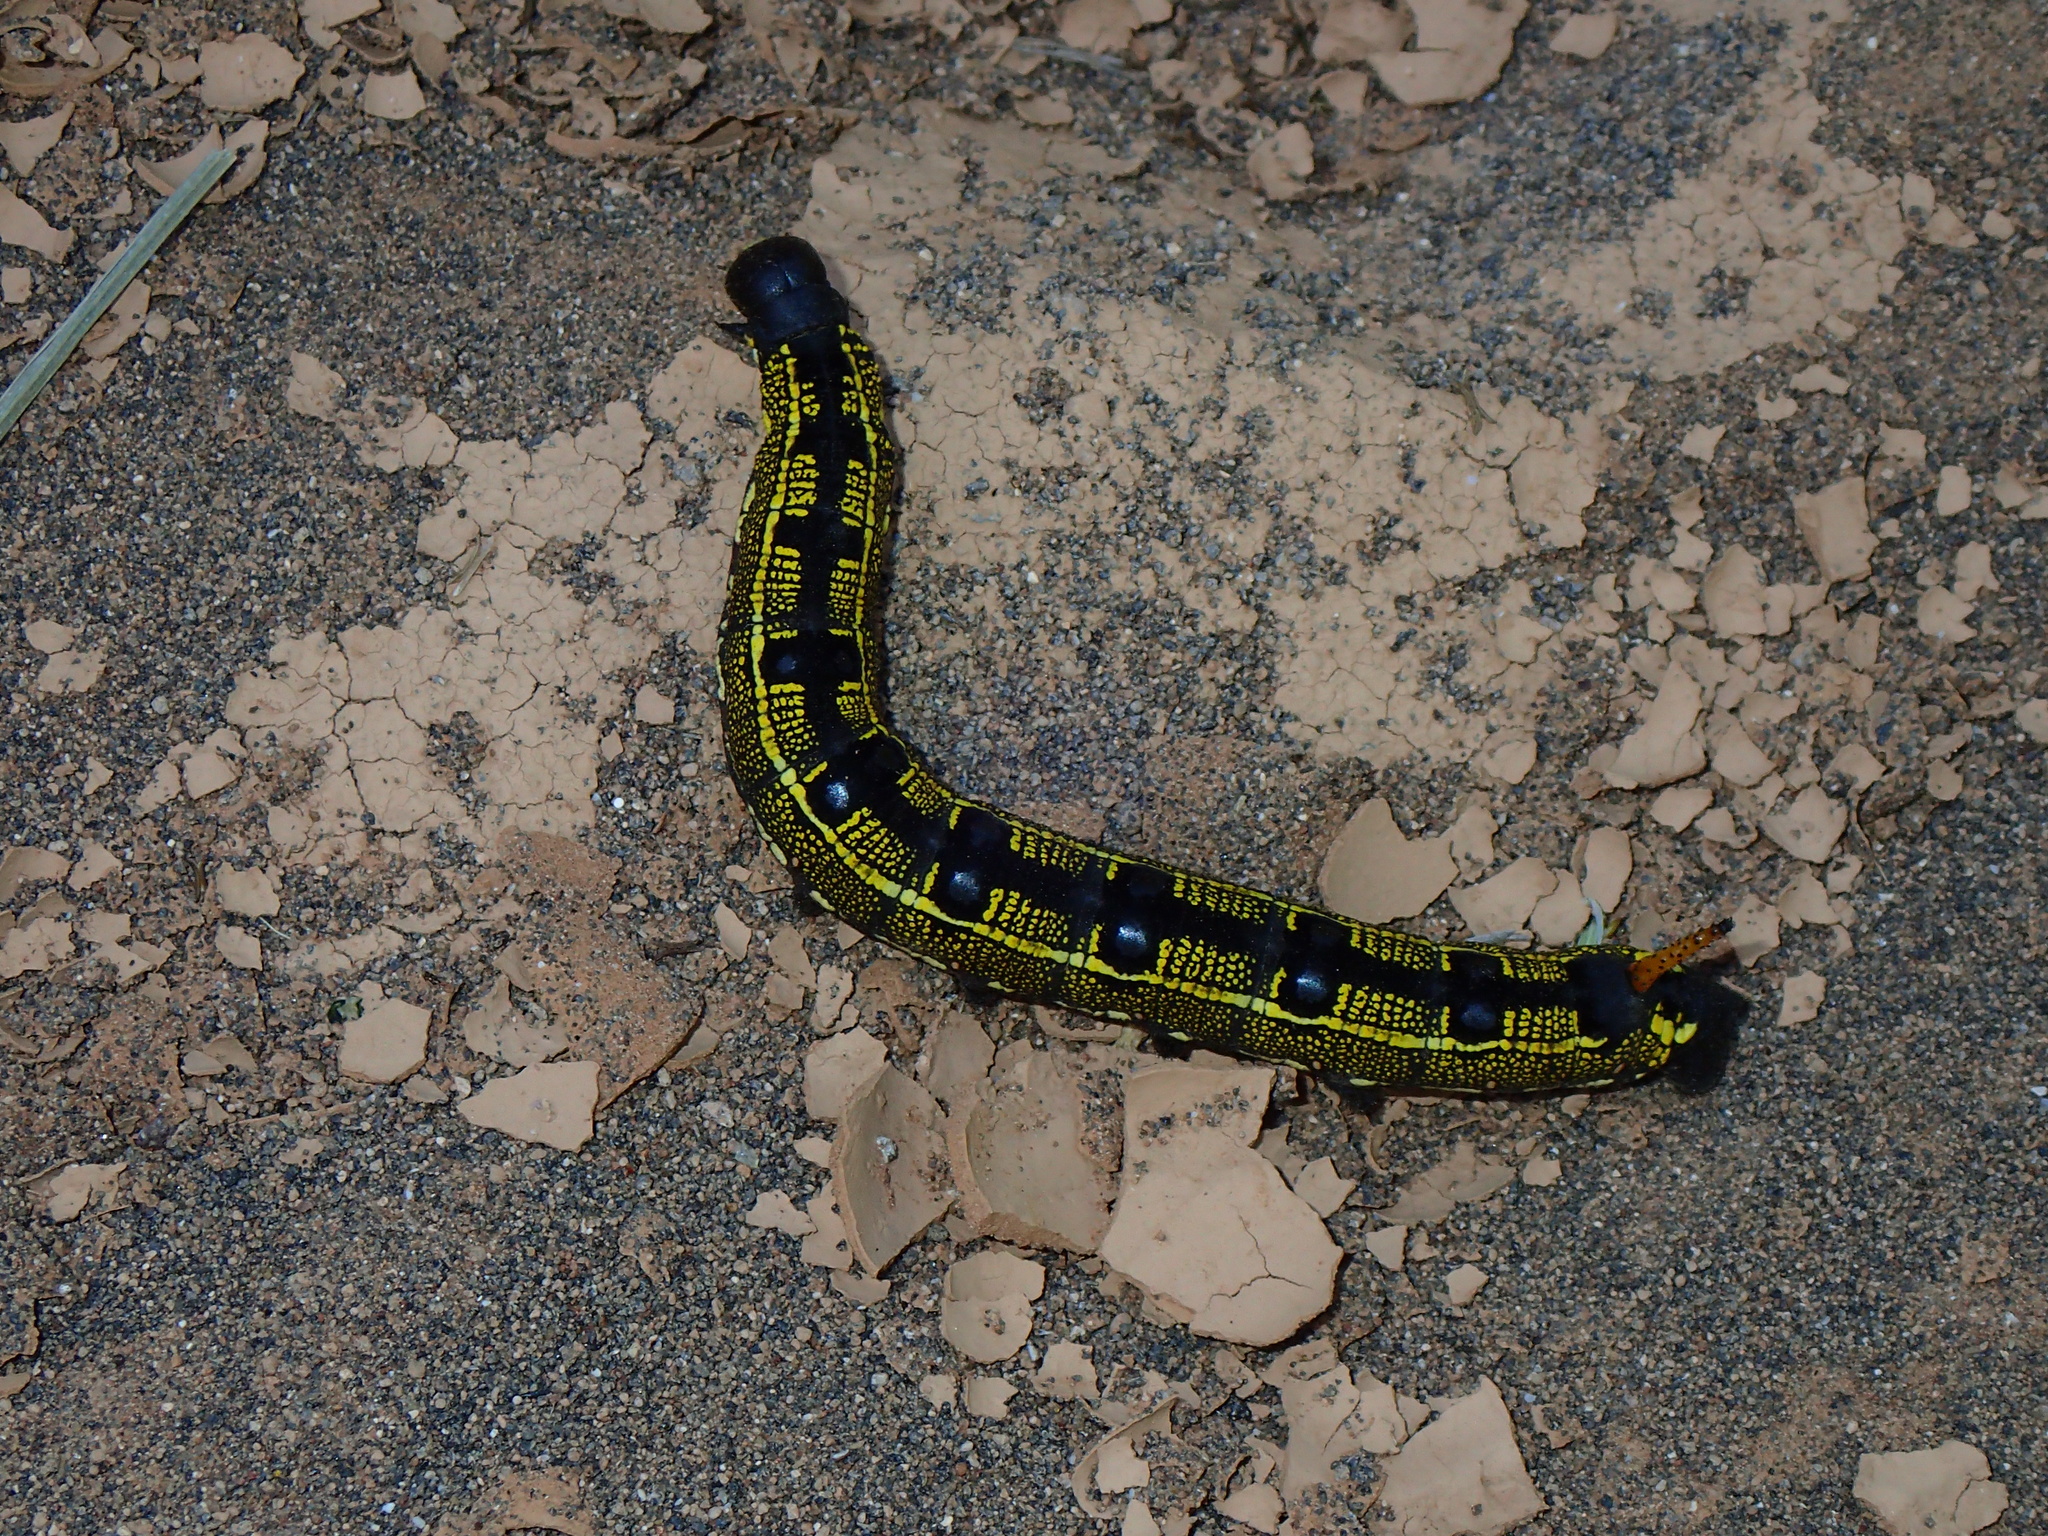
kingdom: Animalia
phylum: Arthropoda
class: Insecta
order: Lepidoptera
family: Sphingidae
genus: Hyles
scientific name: Hyles livornica
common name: Striped hawk-moth
